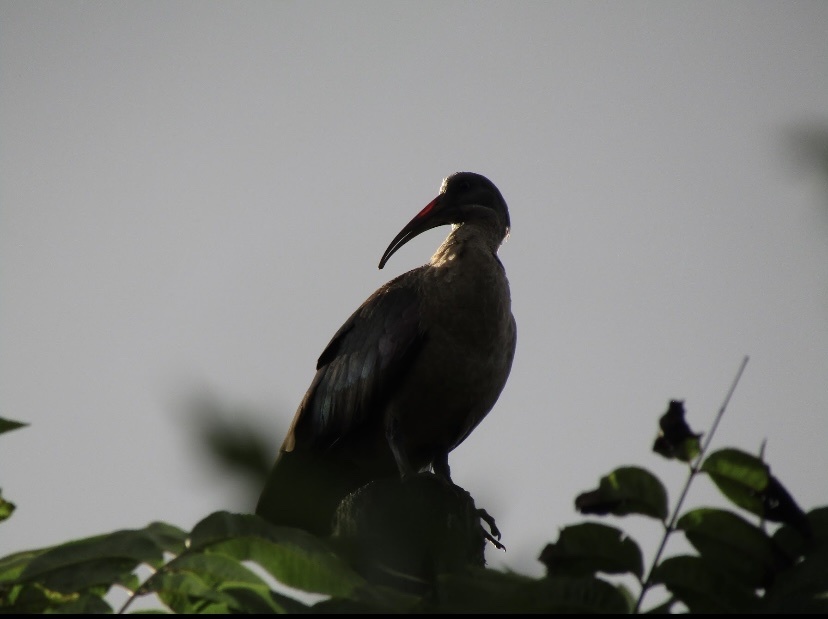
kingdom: Animalia
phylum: Chordata
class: Aves
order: Pelecaniformes
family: Threskiornithidae
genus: Bostrychia
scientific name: Bostrychia hagedash
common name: Hadada ibis
